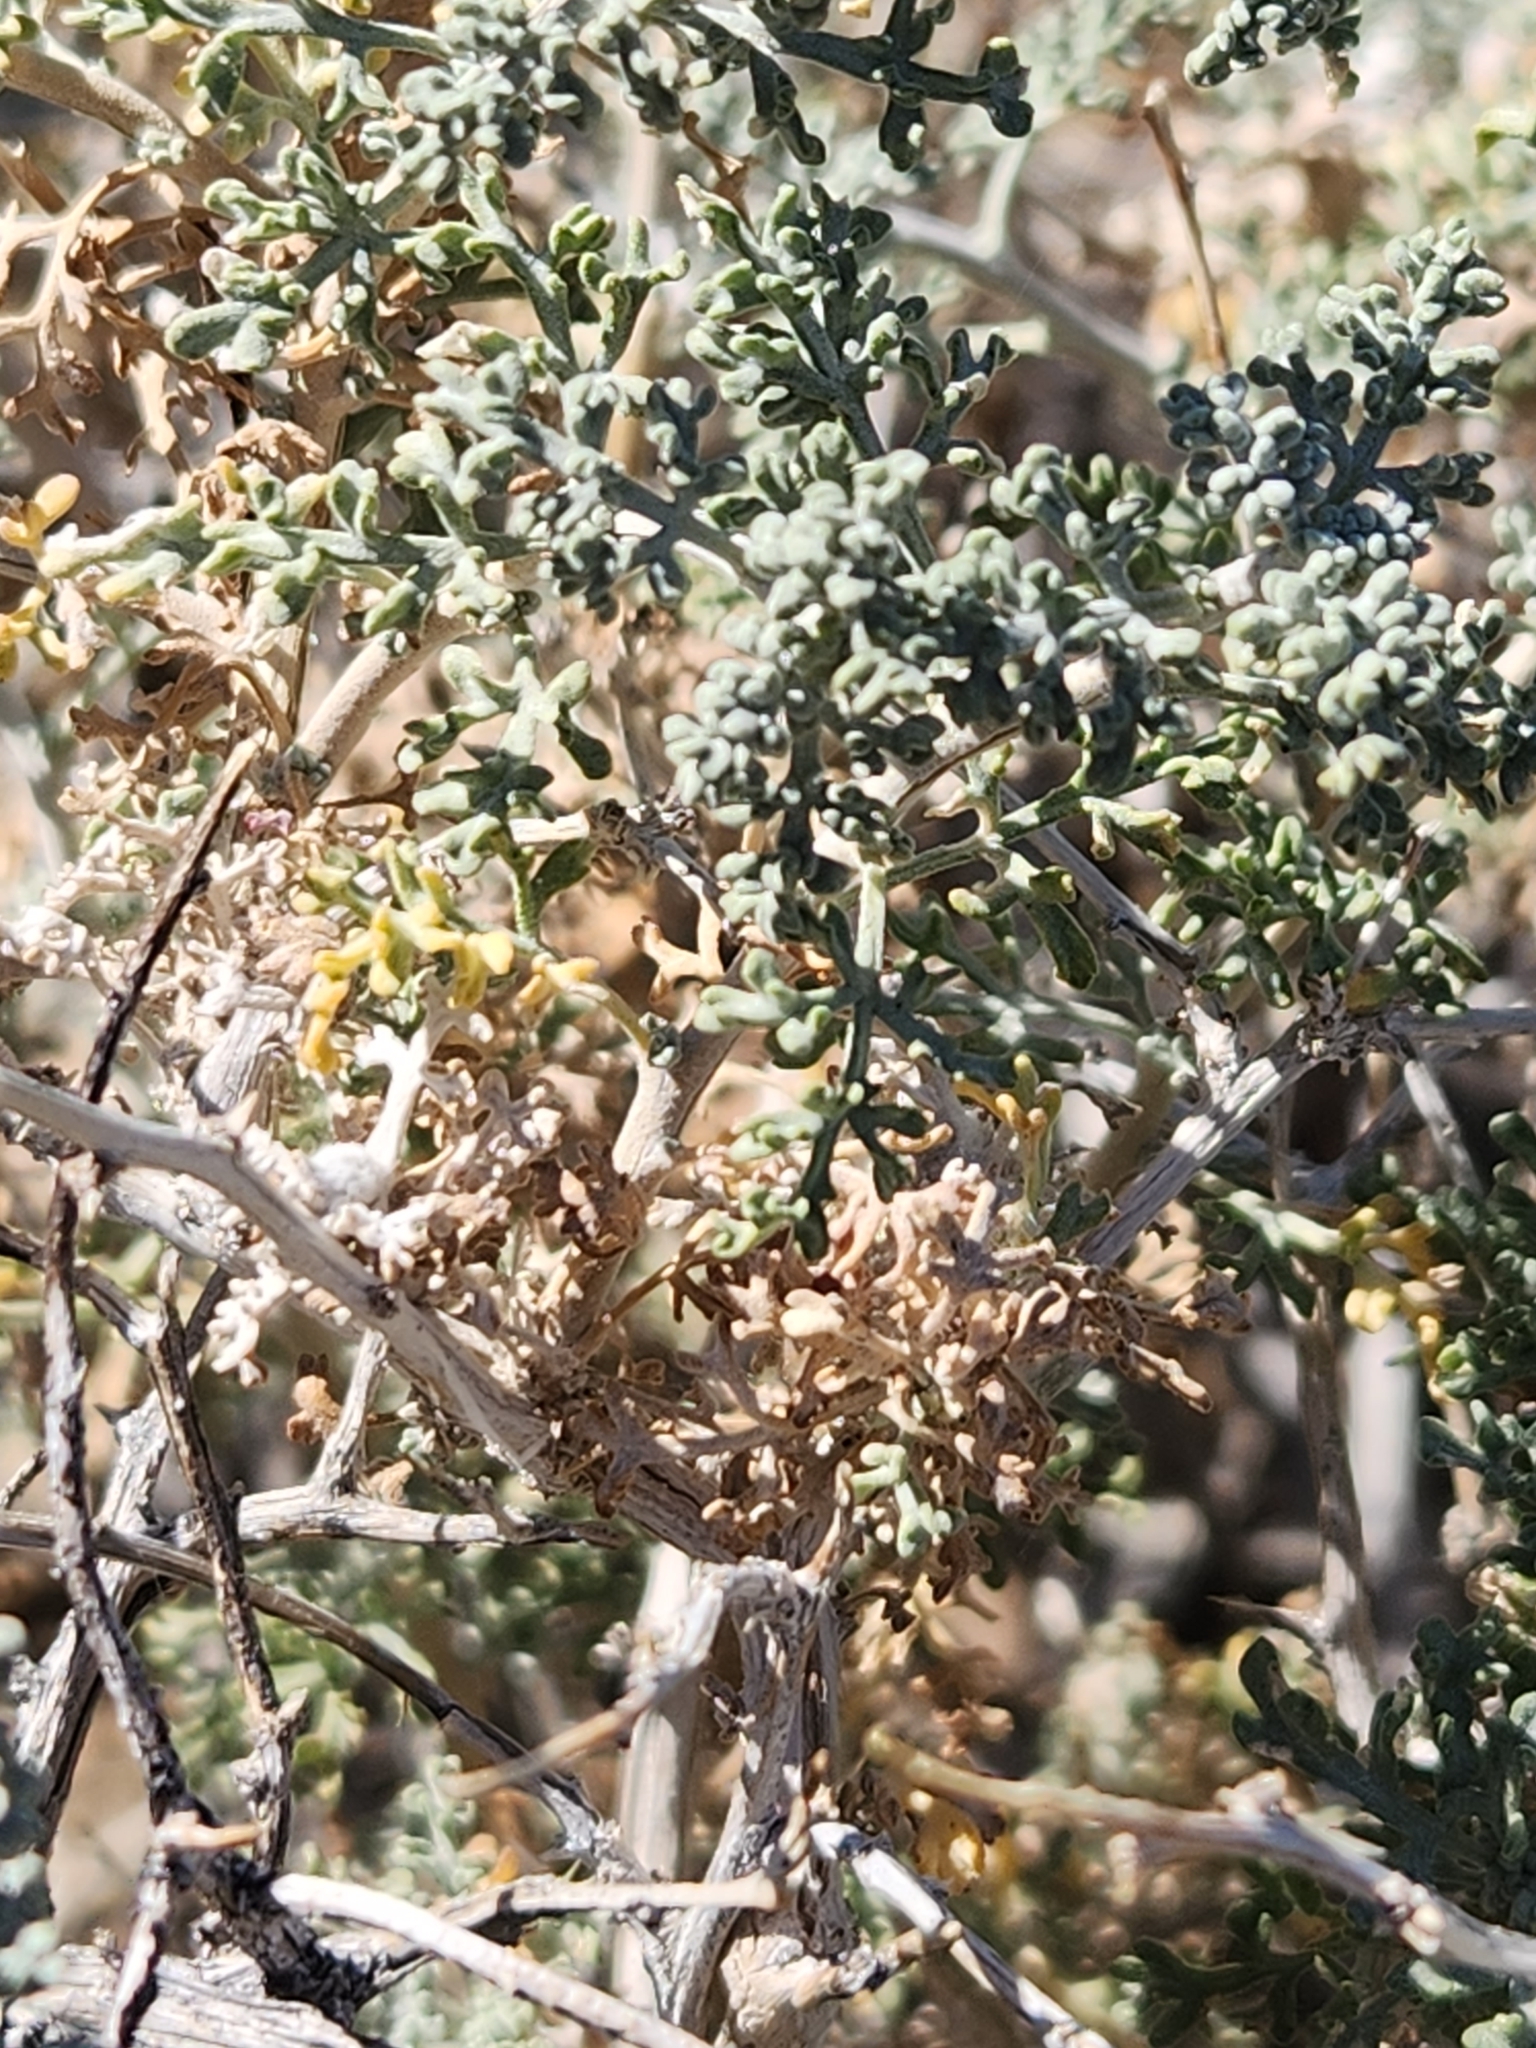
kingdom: Plantae
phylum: Tracheophyta
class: Magnoliopsida
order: Asterales
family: Asteraceae
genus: Ambrosia
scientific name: Ambrosia dumosa
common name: Bur-sage
